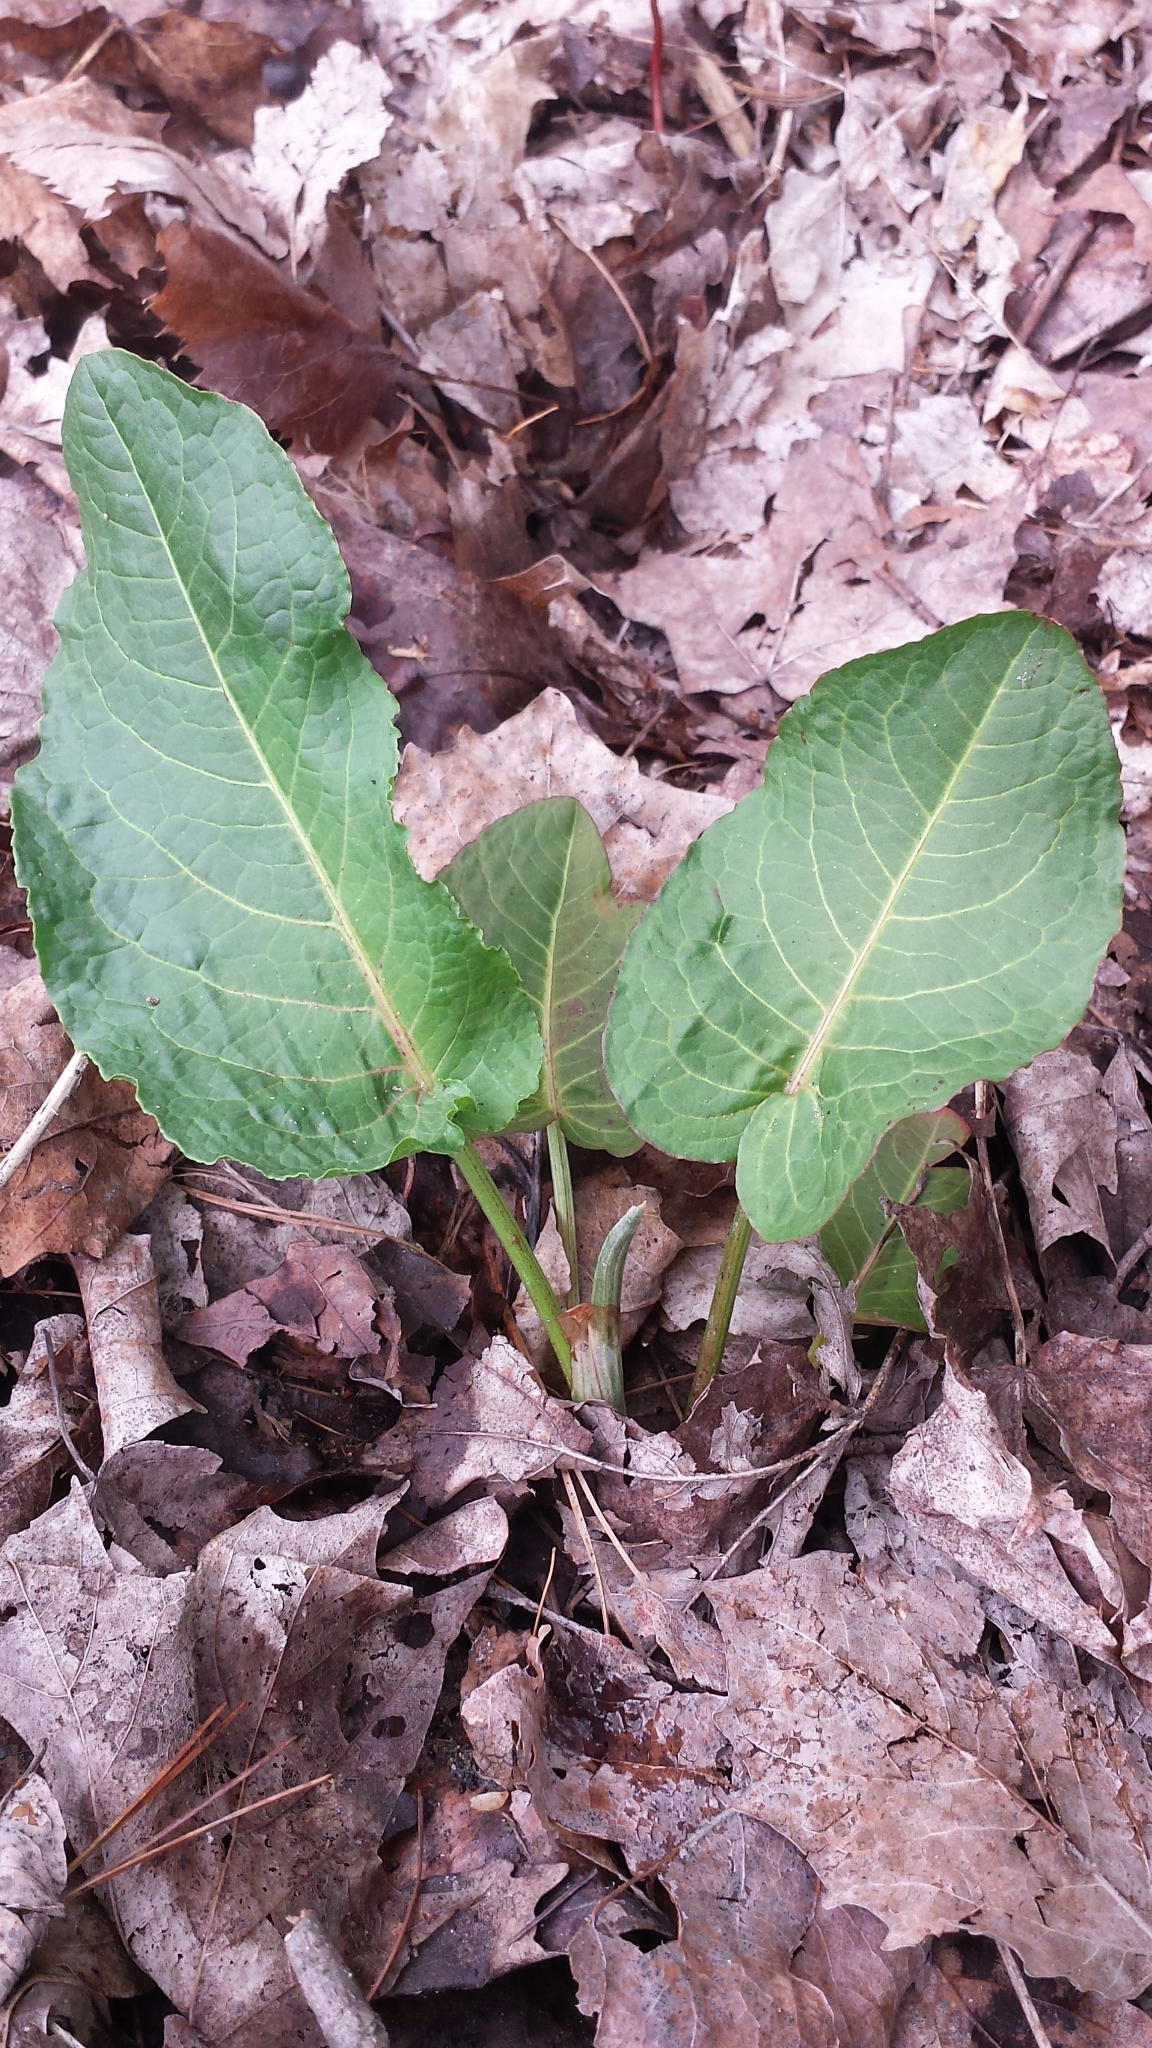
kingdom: Plantae
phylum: Tracheophyta
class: Magnoliopsida
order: Caryophyllales
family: Polygonaceae
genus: Rumex
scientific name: Rumex obtusifolius
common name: Bitter dock
